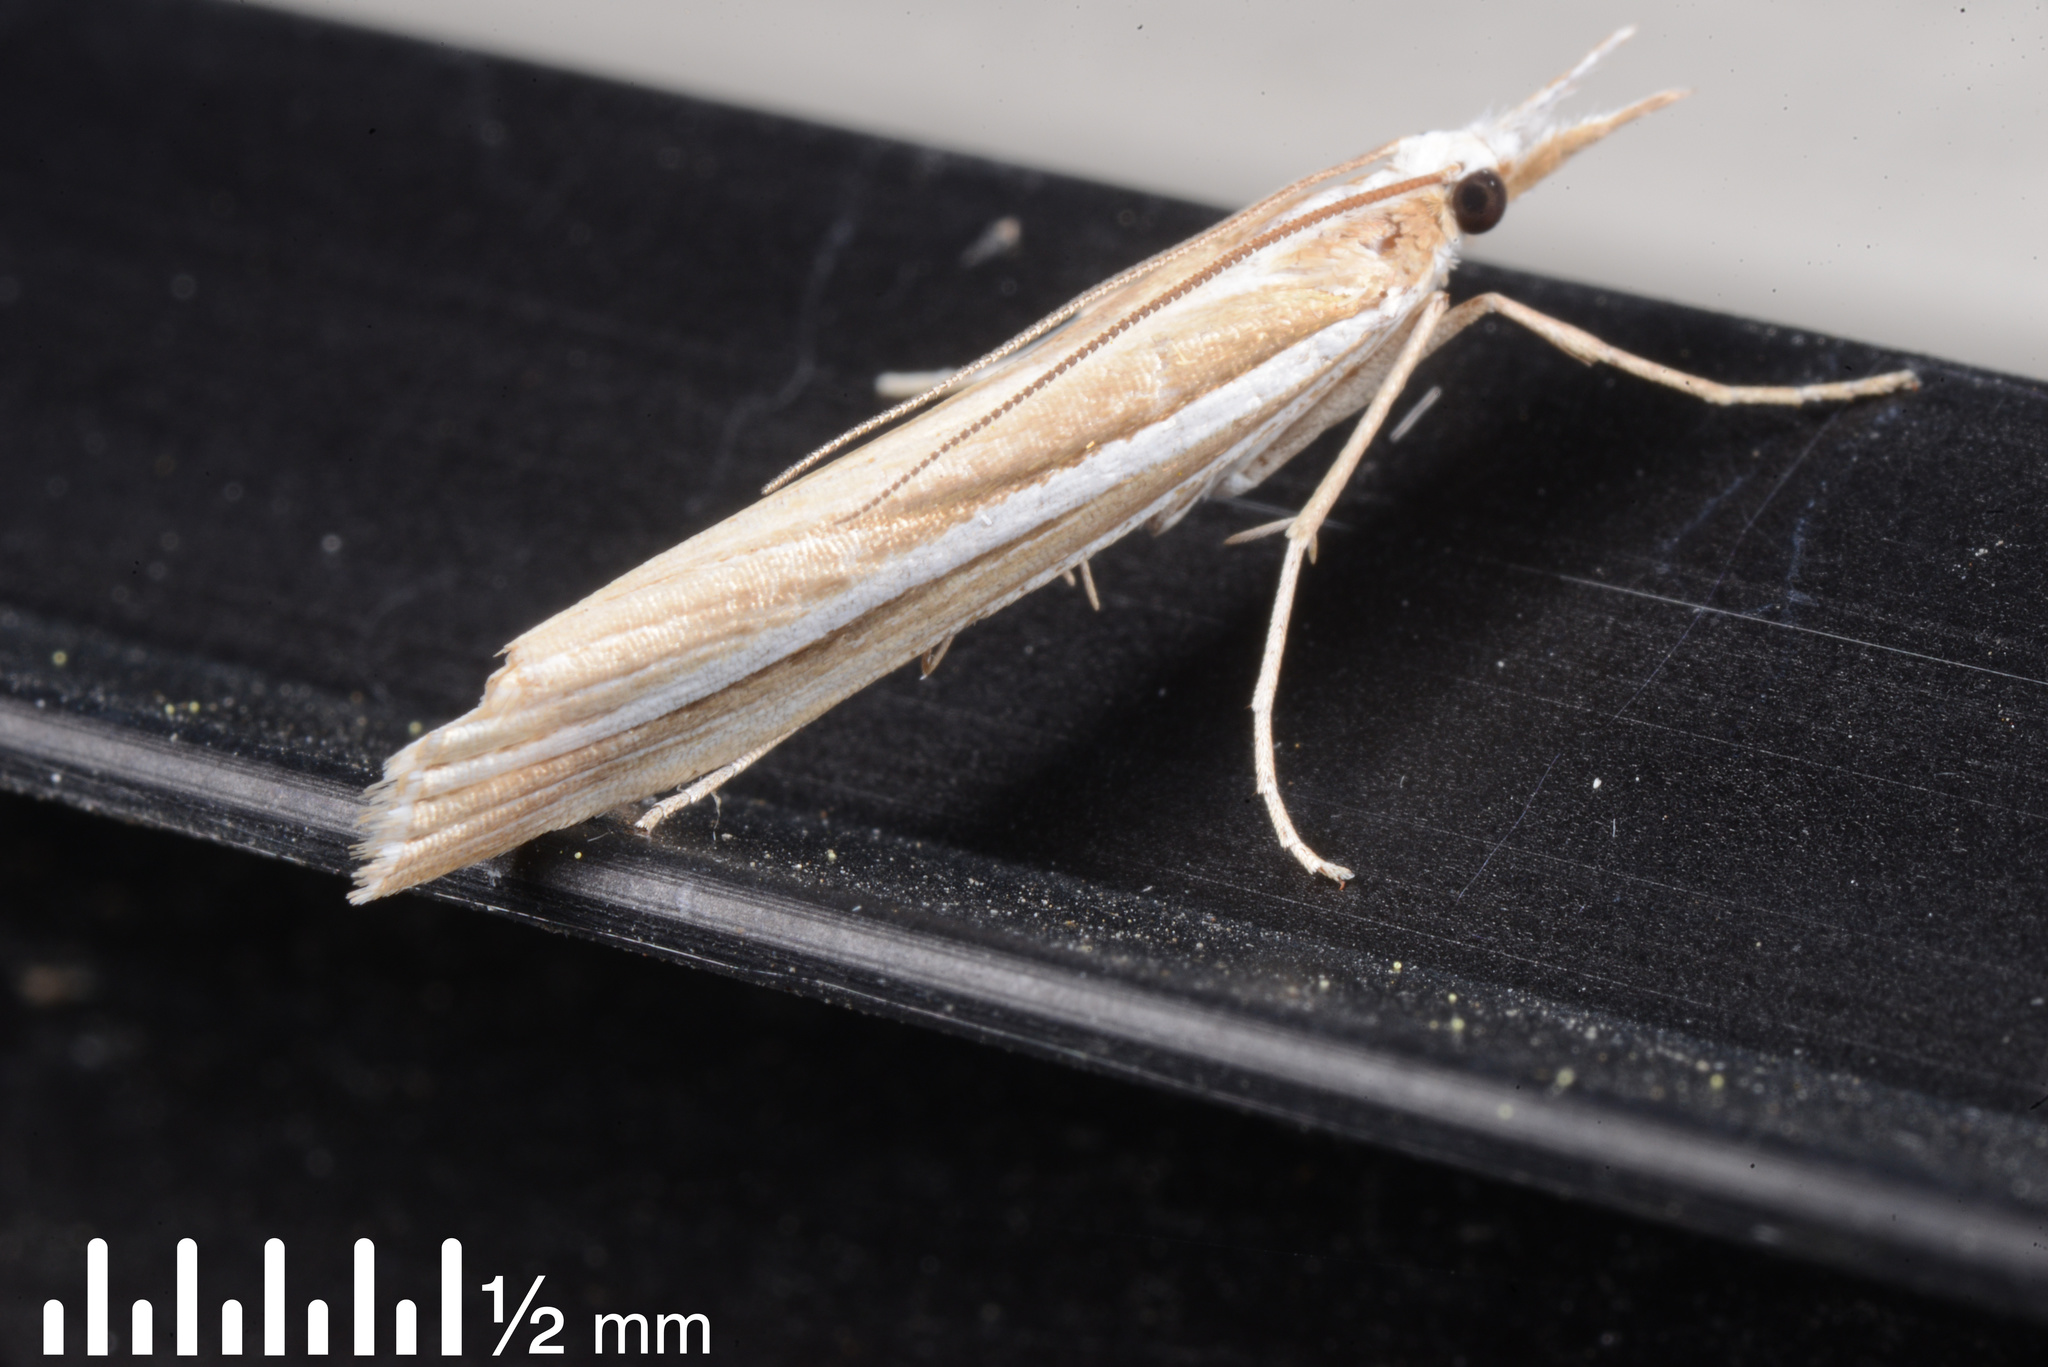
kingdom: Animalia
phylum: Arthropoda
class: Insecta
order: Lepidoptera
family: Crambidae
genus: Orocrambus
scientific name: Orocrambus vittellus
